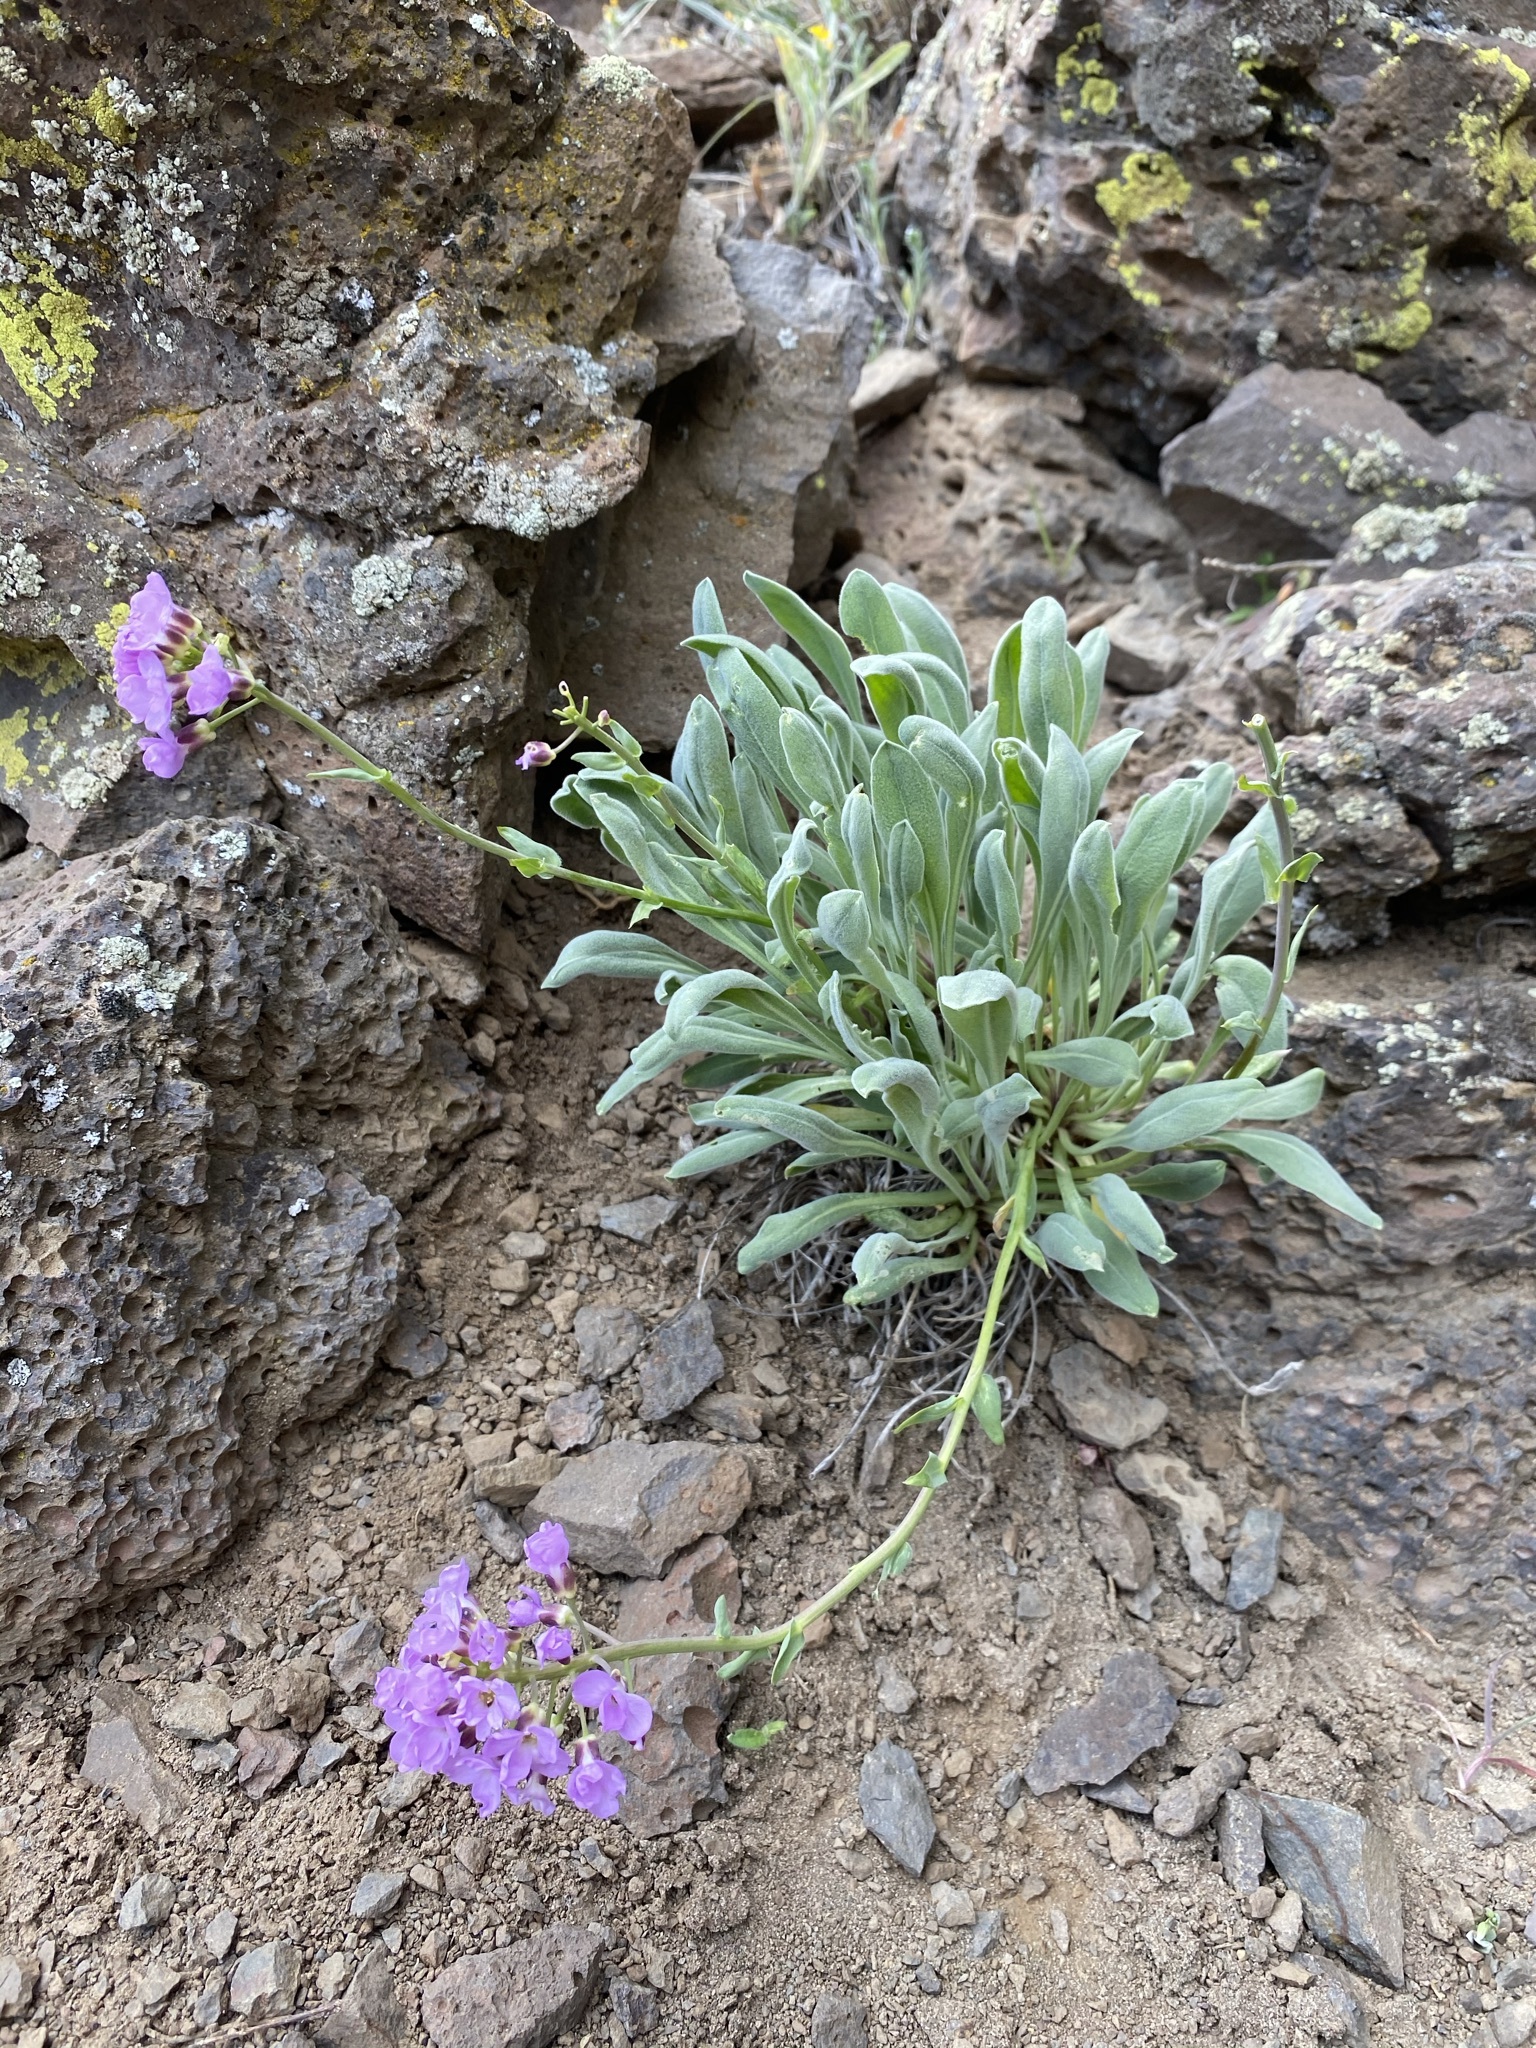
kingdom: Plantae
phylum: Tracheophyta
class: Magnoliopsida
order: Brassicales
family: Brassicaceae
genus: Phoenicaulis
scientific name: Phoenicaulis cheiranthoides
